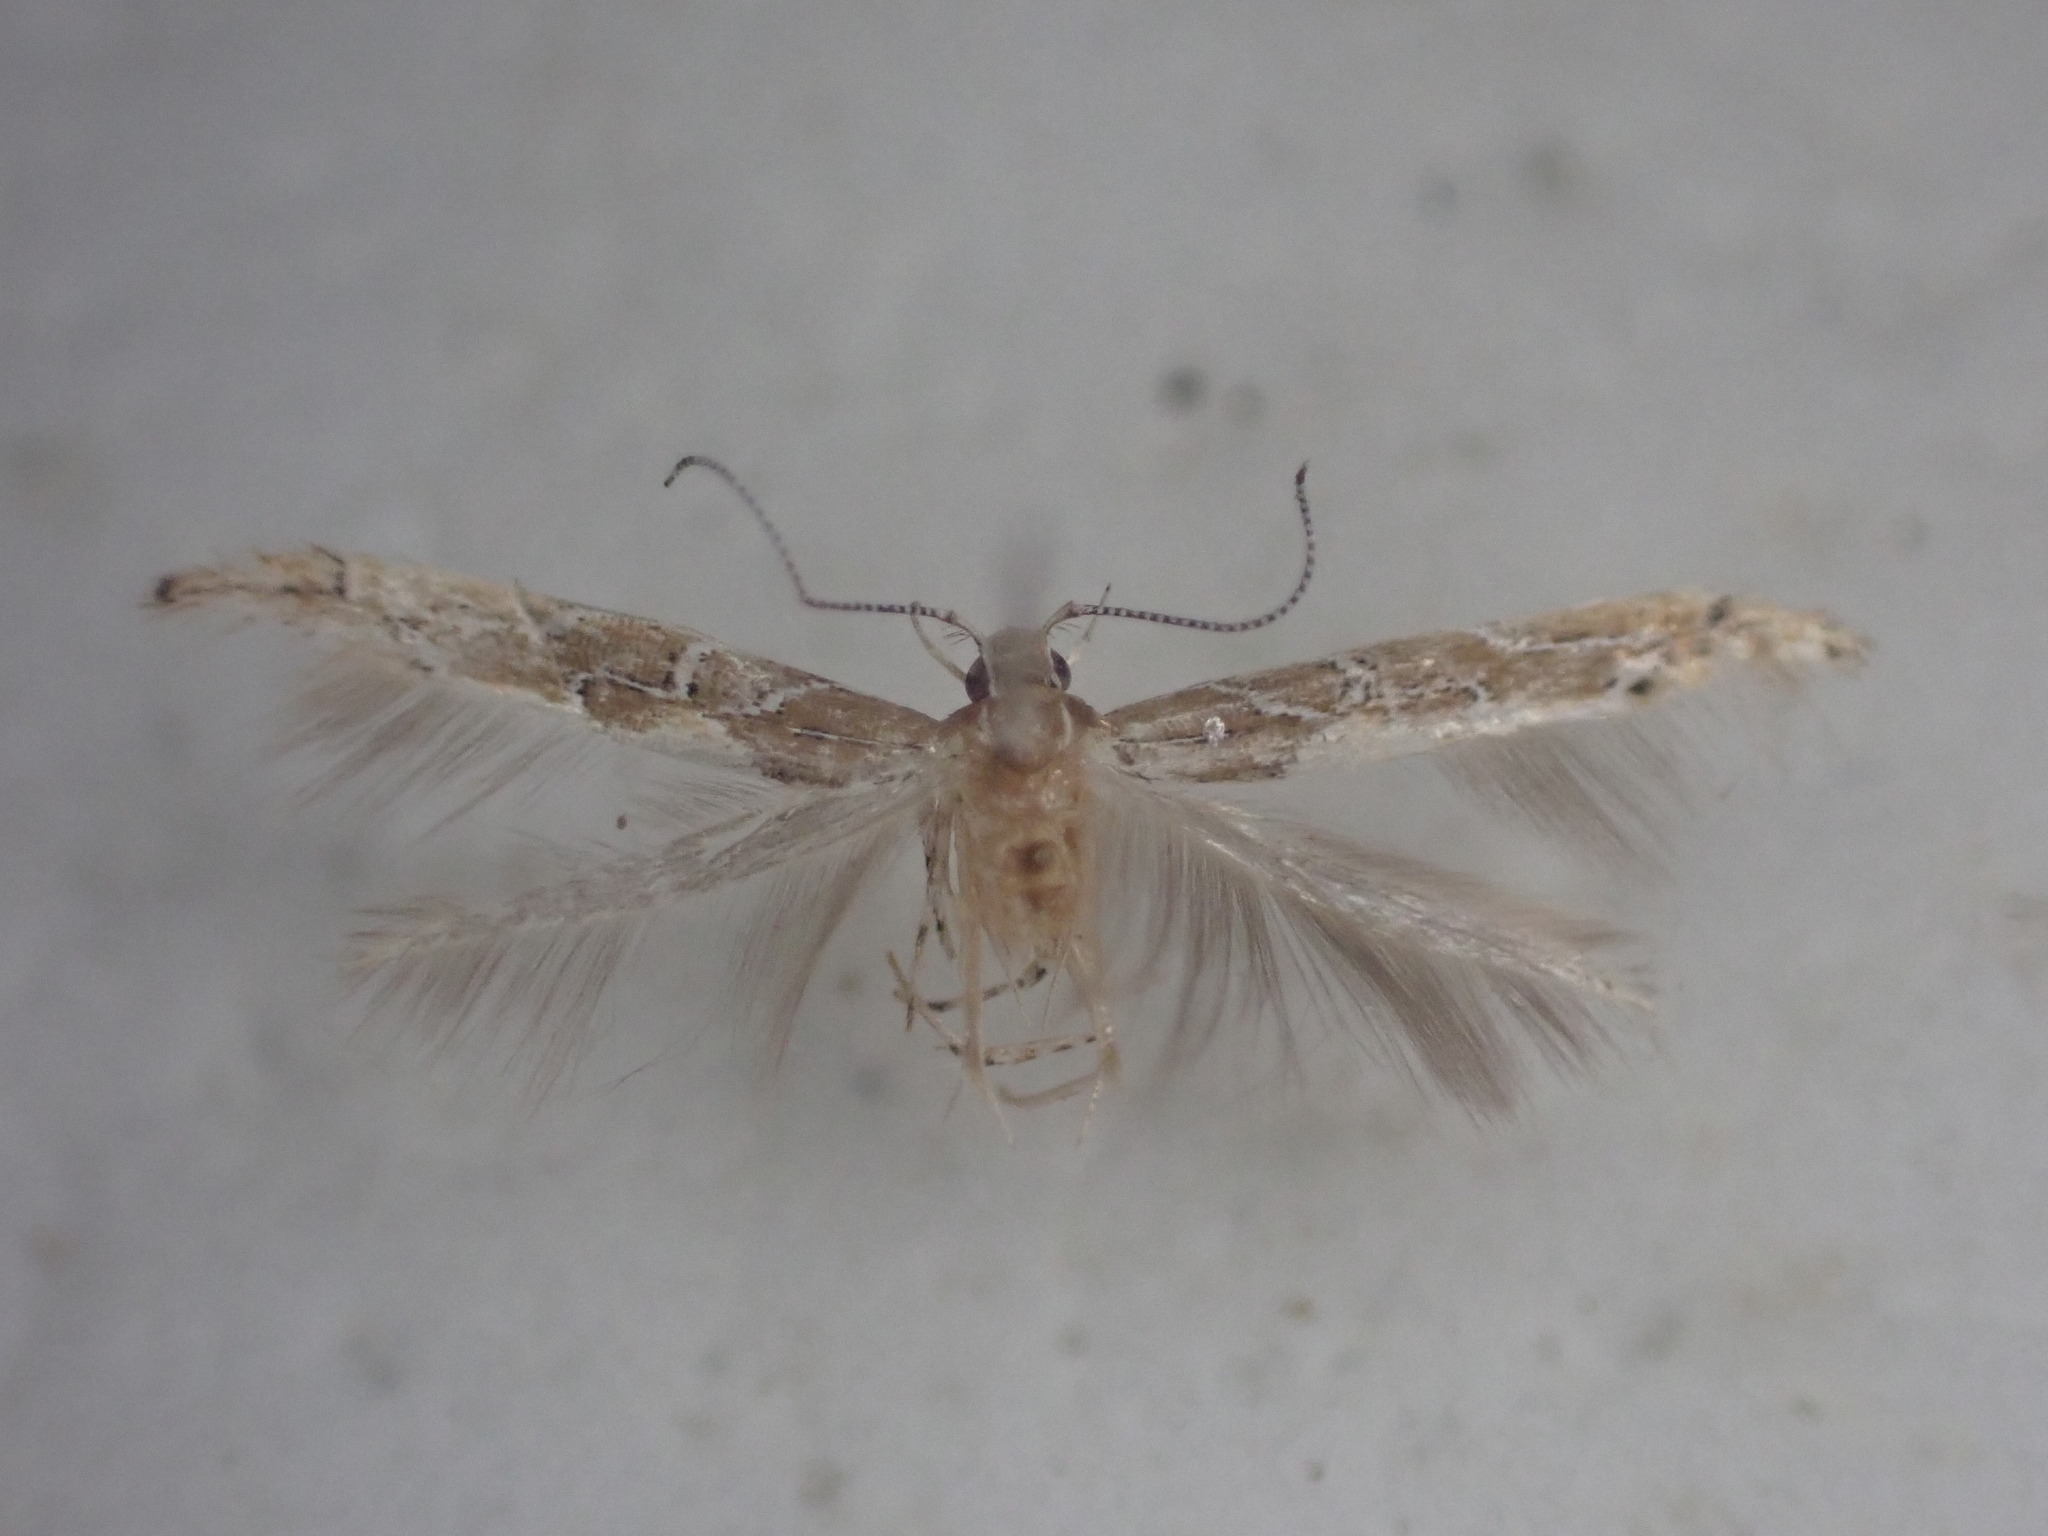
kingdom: Animalia
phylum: Arthropoda
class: Insecta
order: Lepidoptera
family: Cosmopterigidae
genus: Pyroderces
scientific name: Pyroderces apparitella
